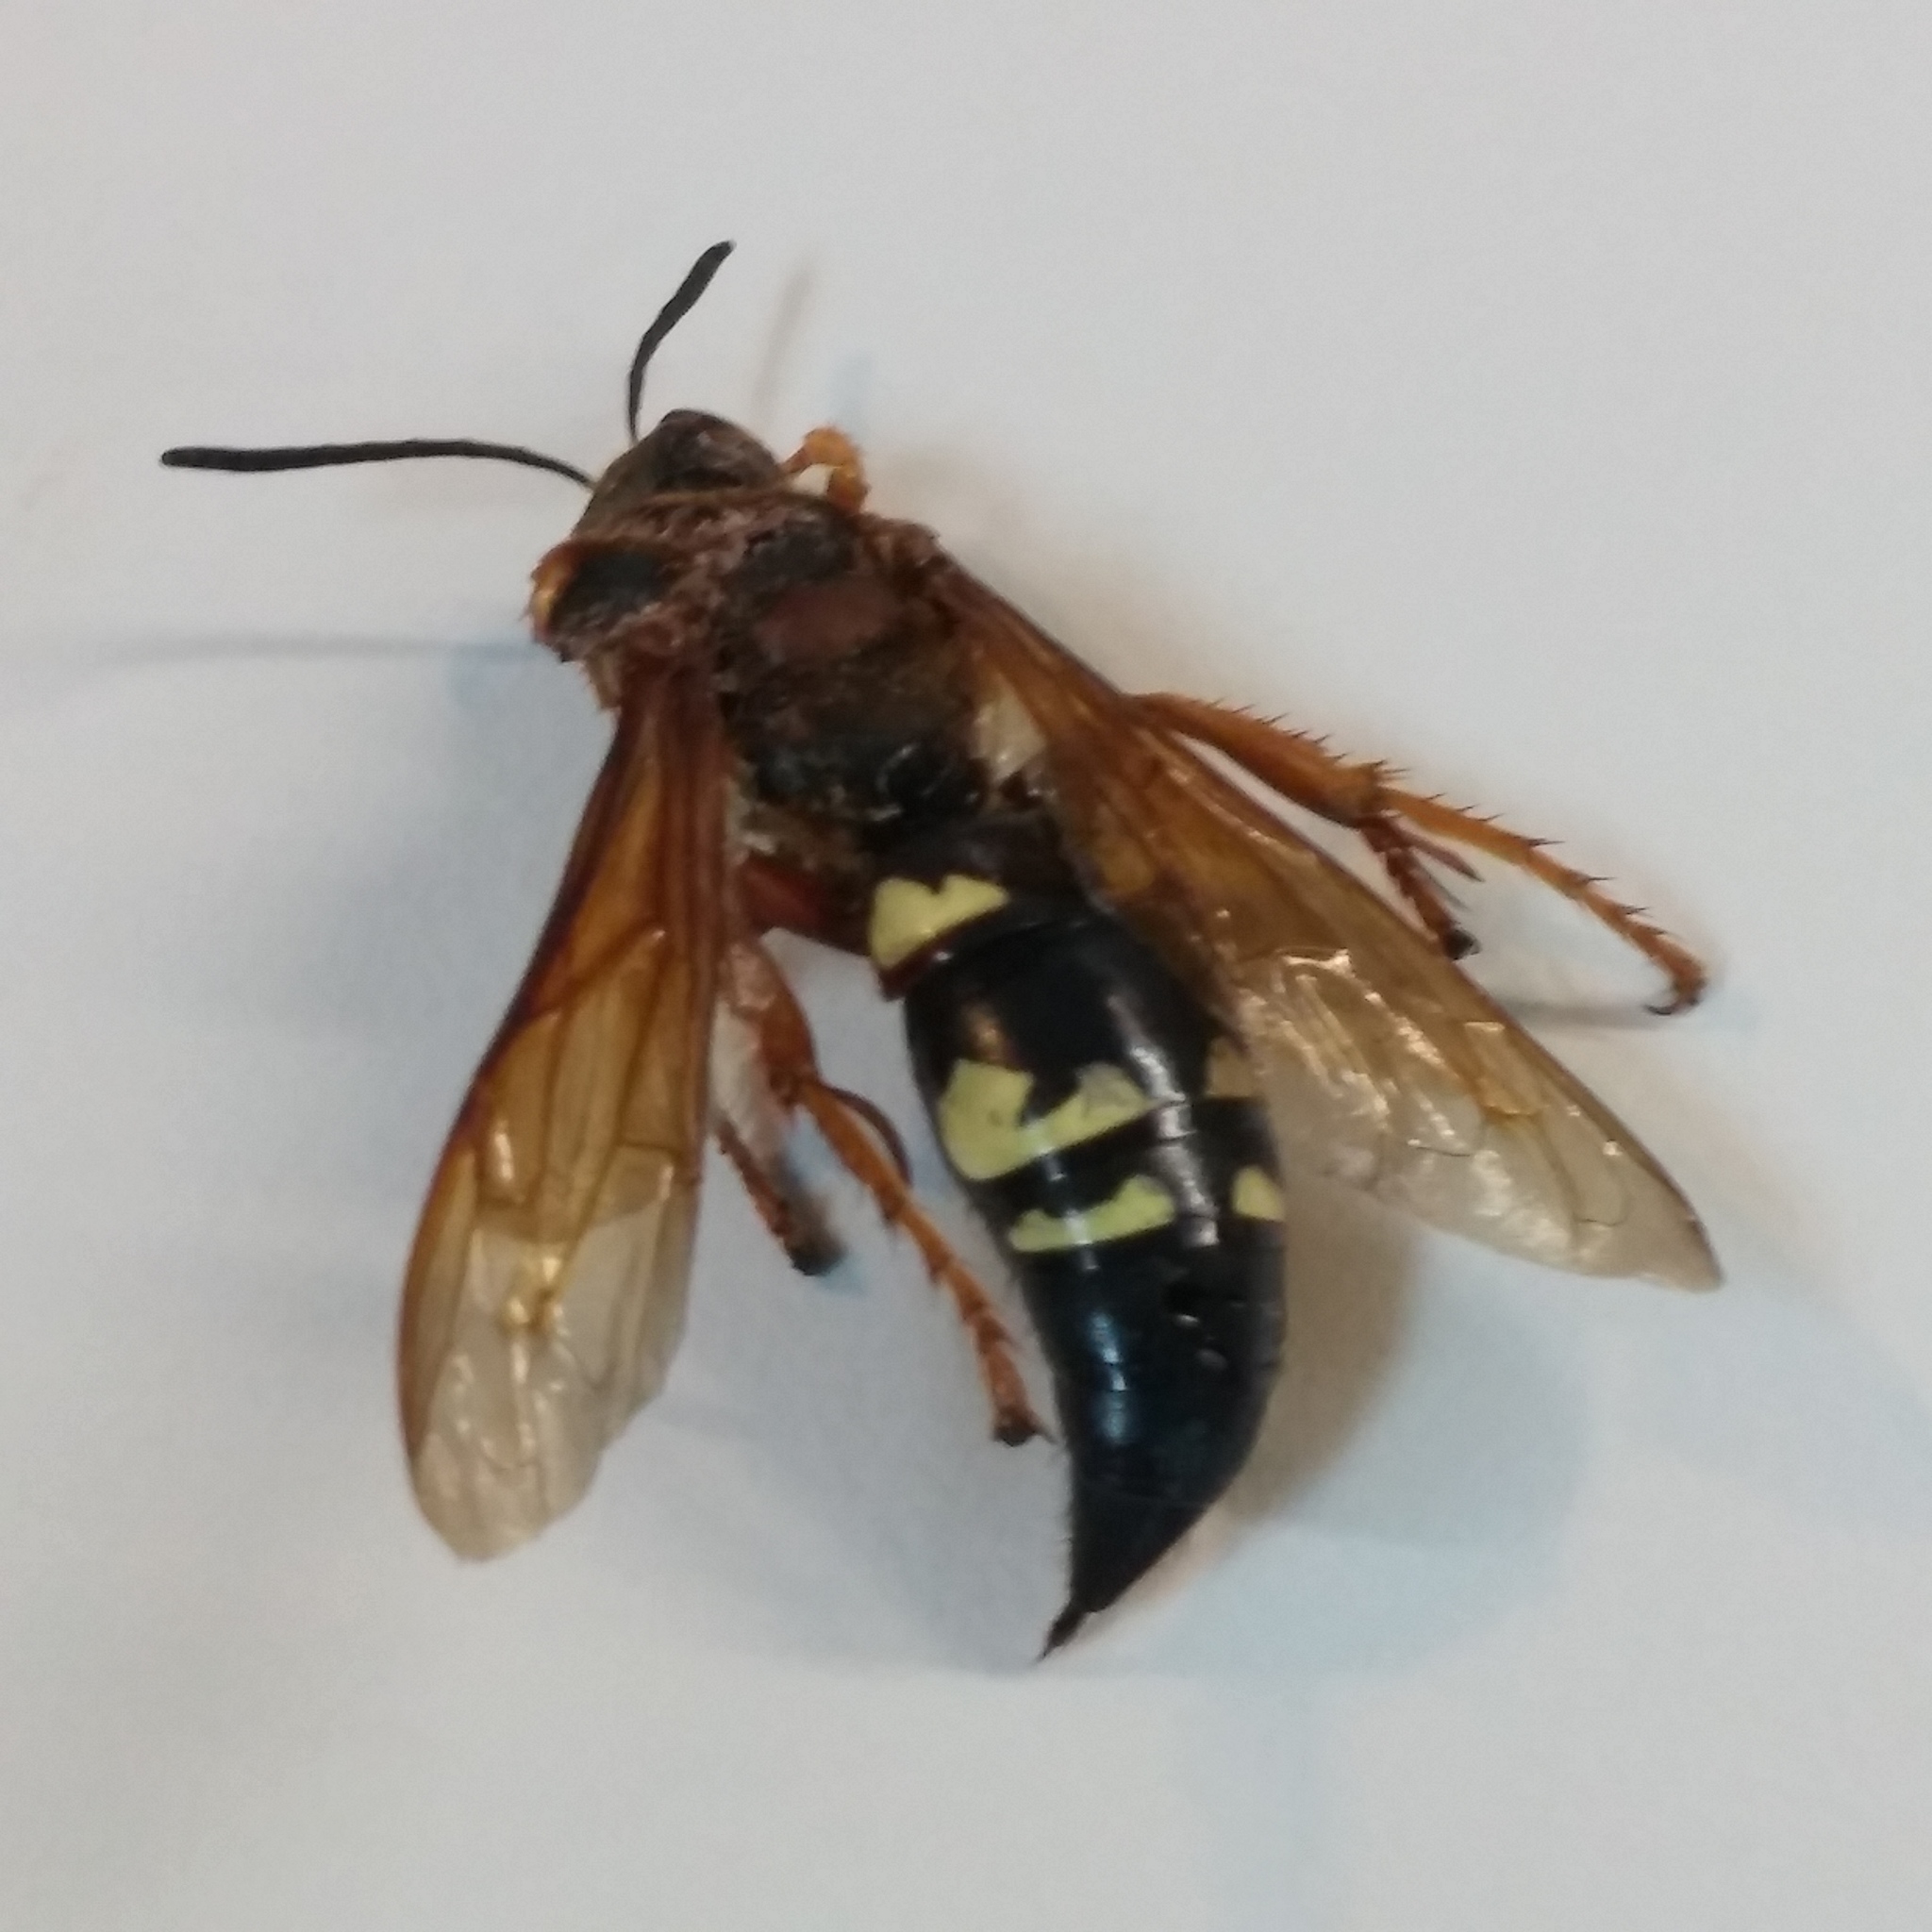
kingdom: Animalia
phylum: Arthropoda
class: Insecta
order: Hymenoptera
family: Crabronidae
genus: Sphecius
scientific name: Sphecius speciosus
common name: Cicada killer
